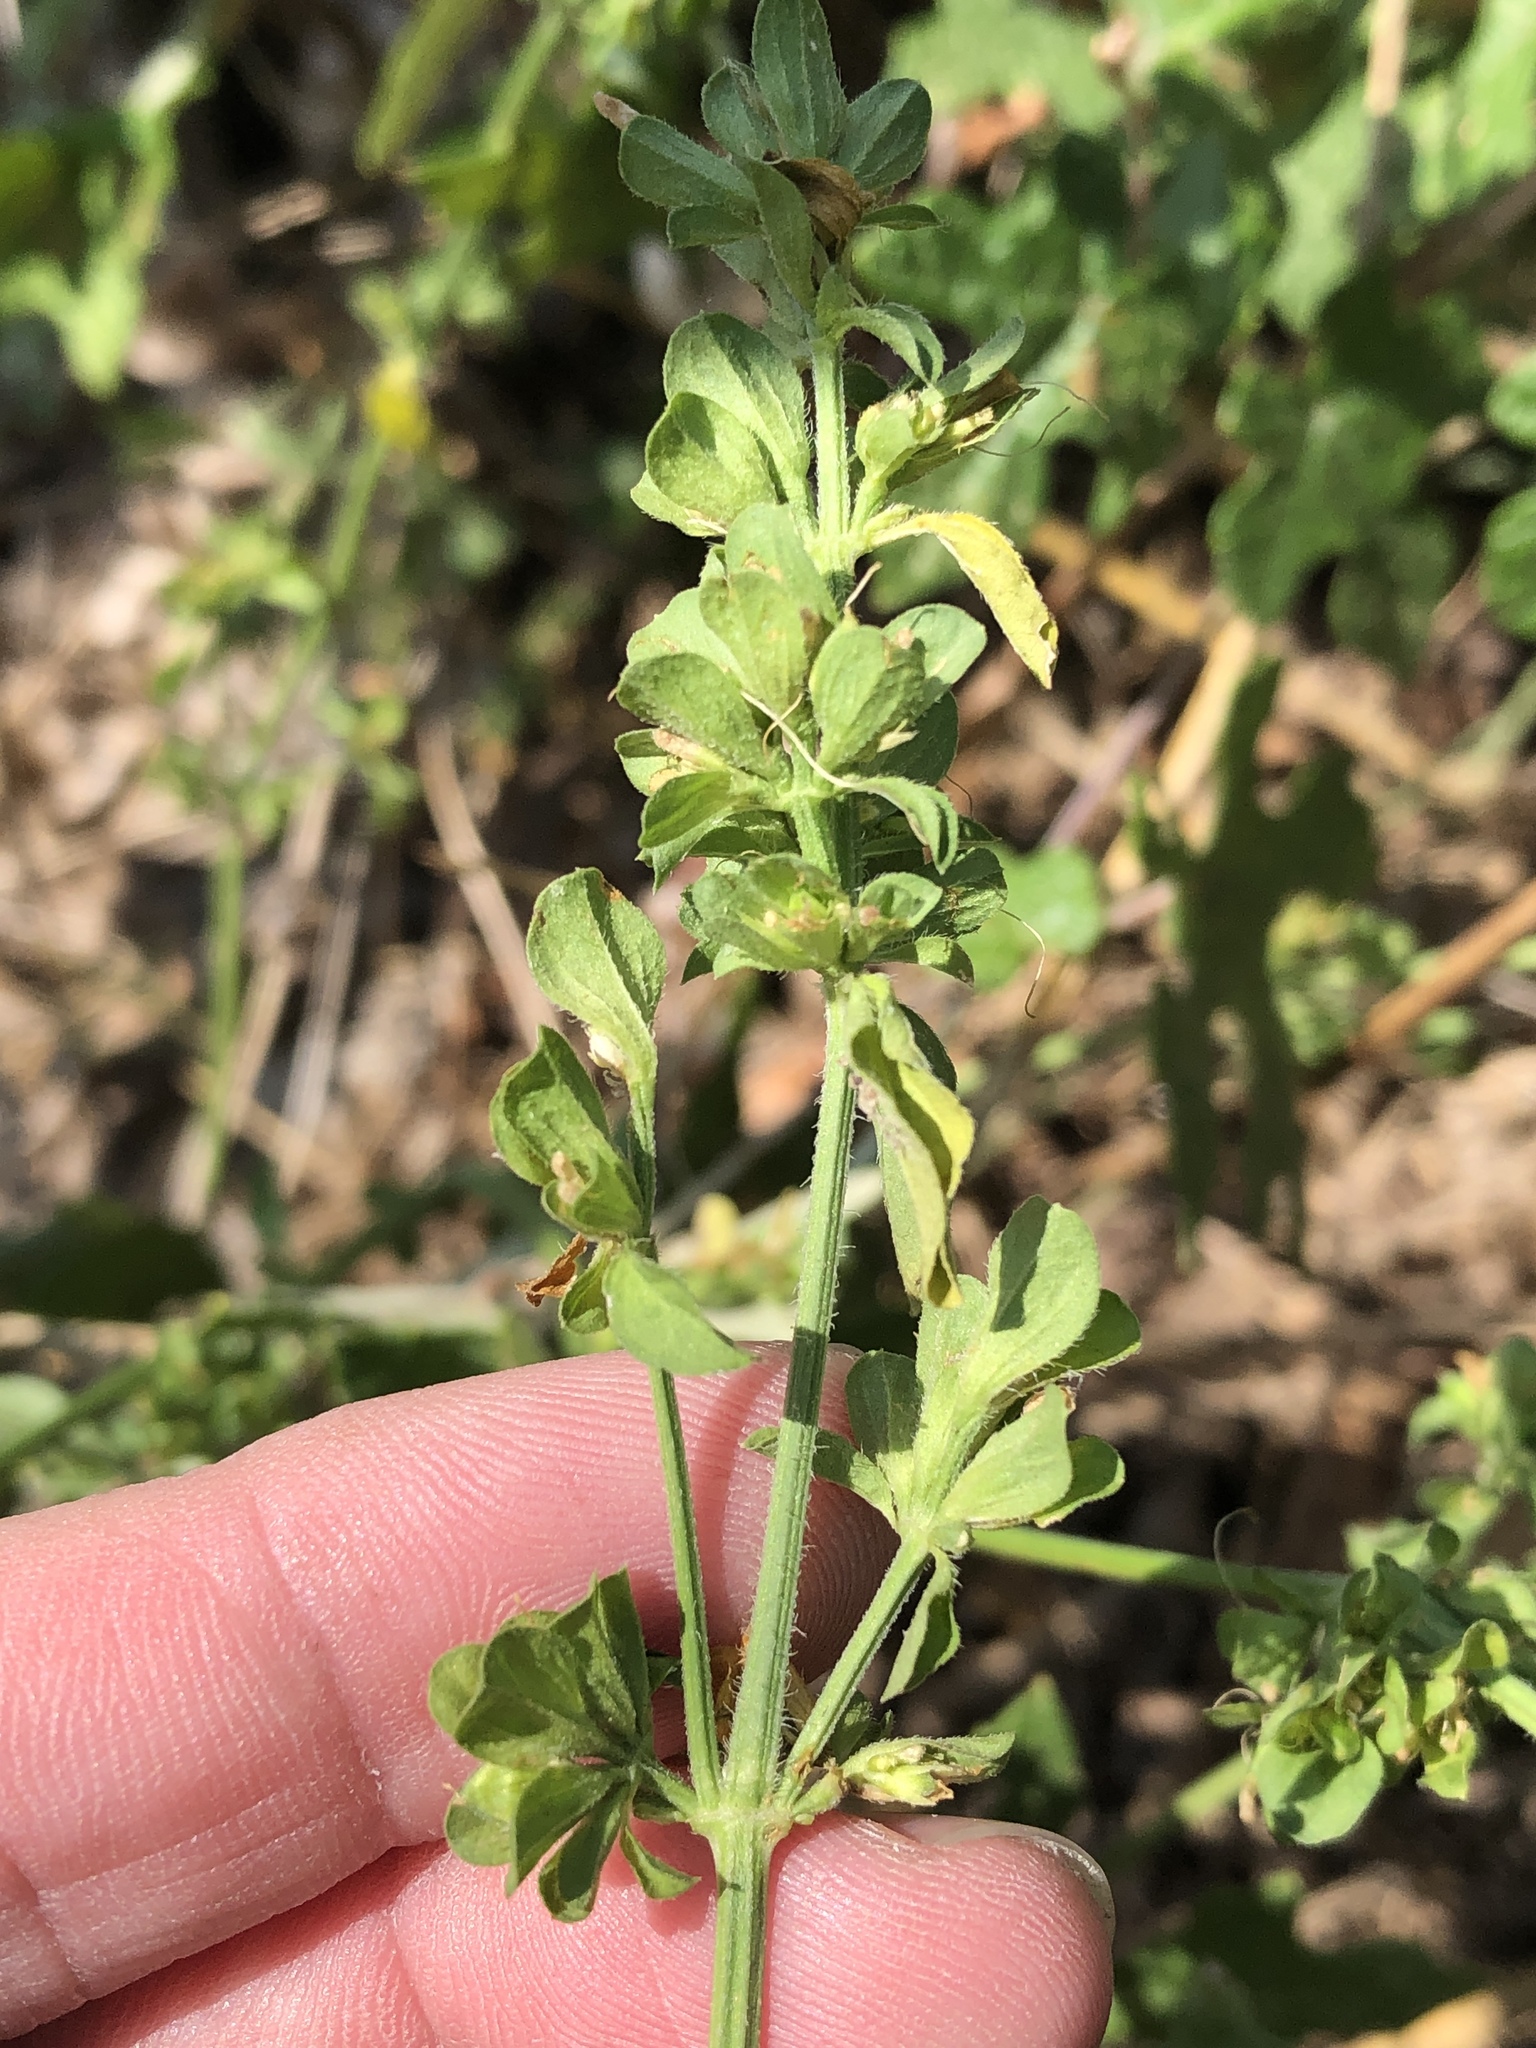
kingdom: Plantae
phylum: Tracheophyta
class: Magnoliopsida
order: Lamiales
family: Acanthaceae
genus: Dicliptera
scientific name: Dicliptera brachiata
